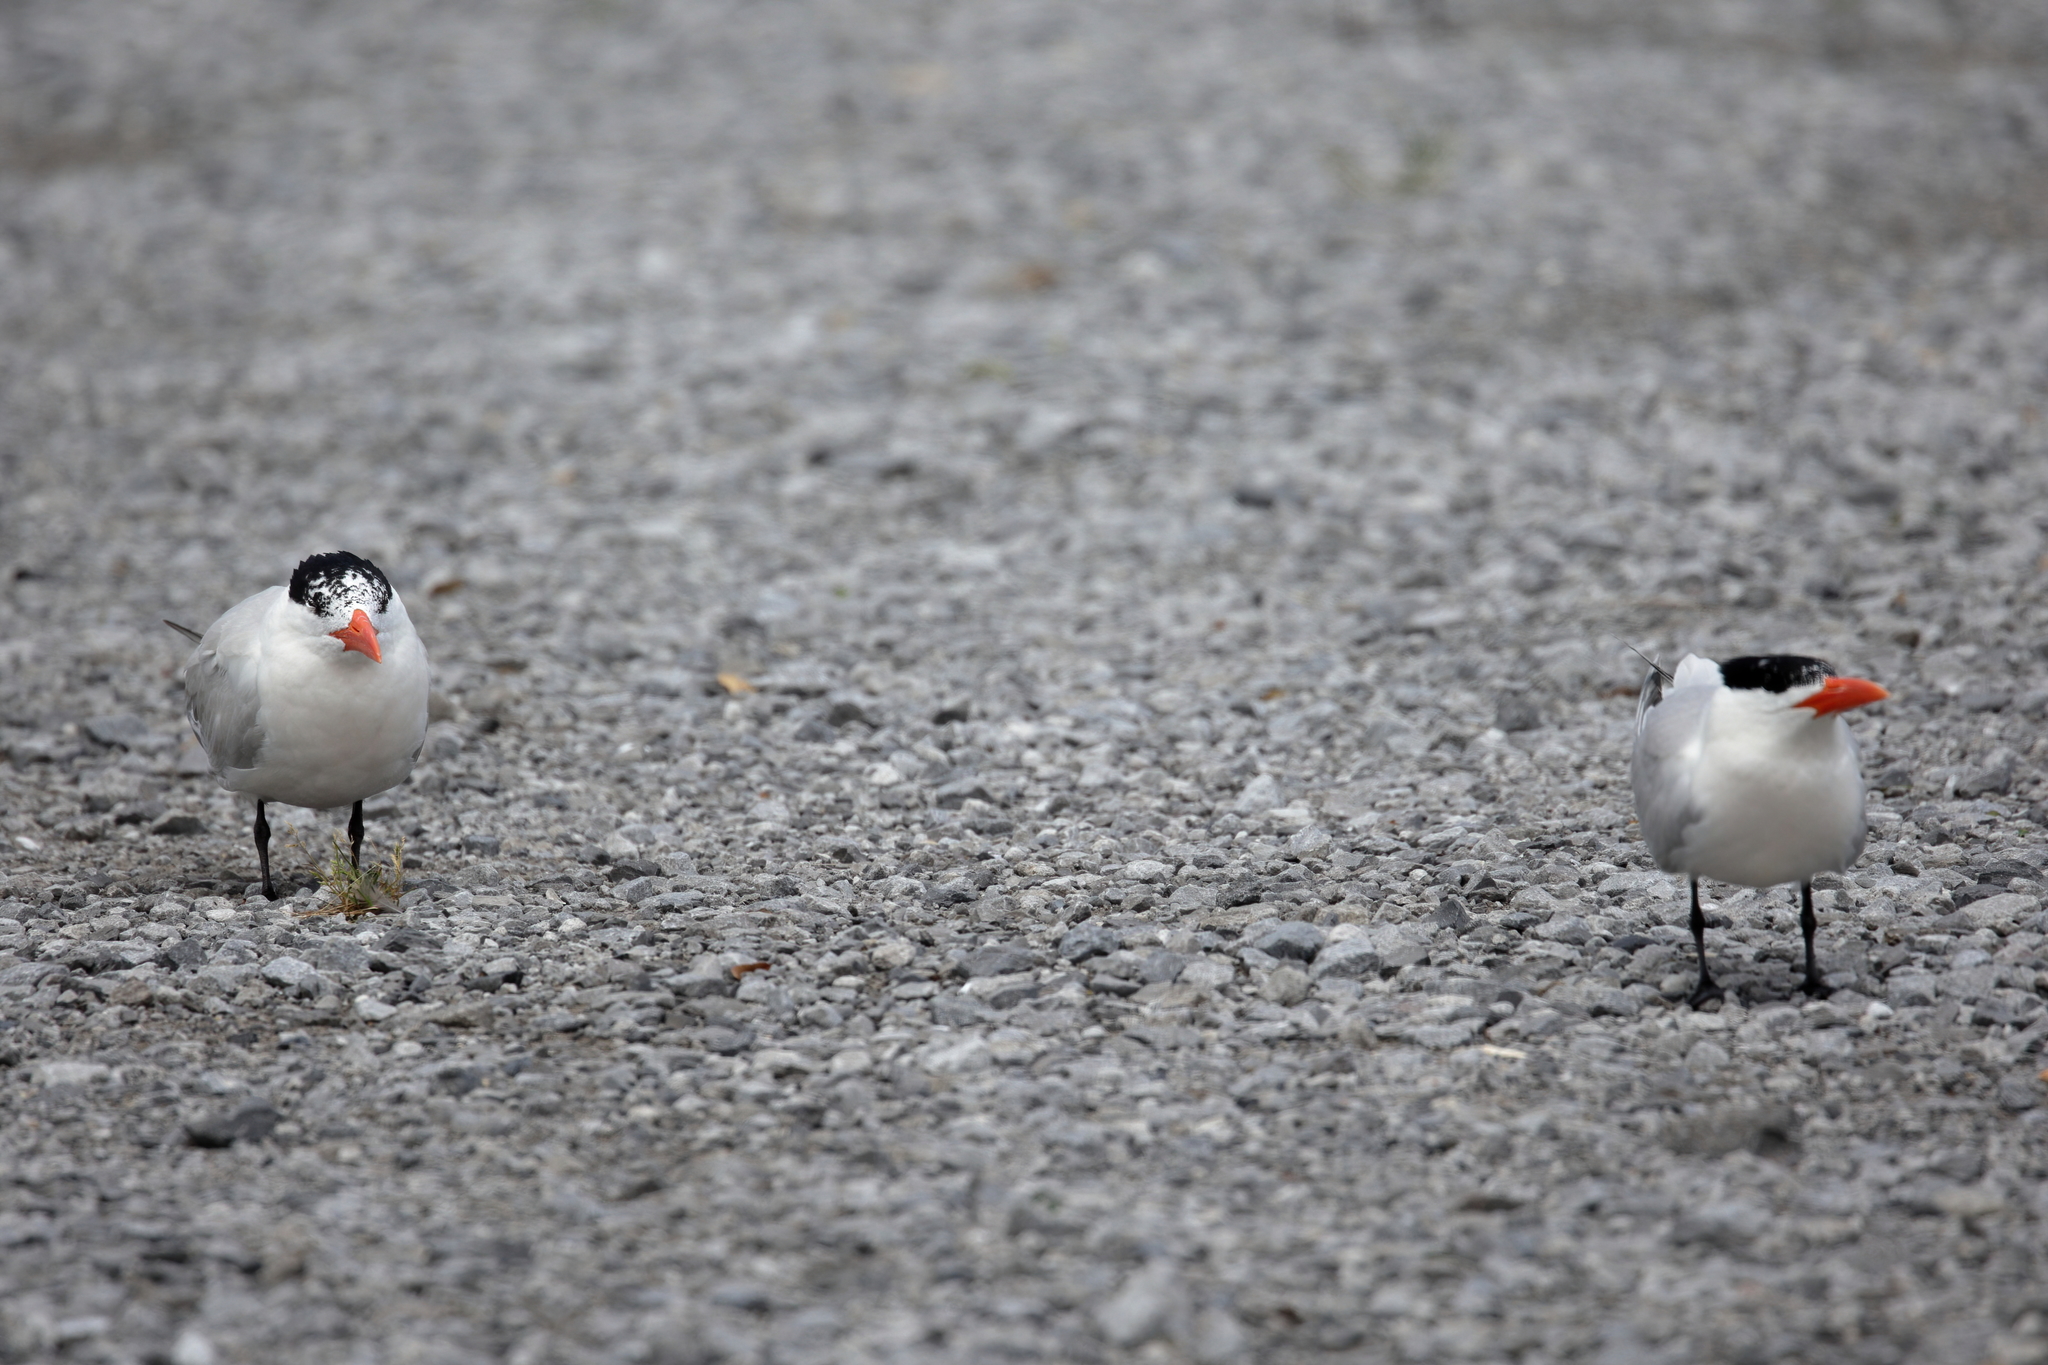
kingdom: Animalia
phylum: Chordata
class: Aves
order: Charadriiformes
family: Laridae
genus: Thalasseus
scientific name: Thalasseus maximus
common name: Royal tern
